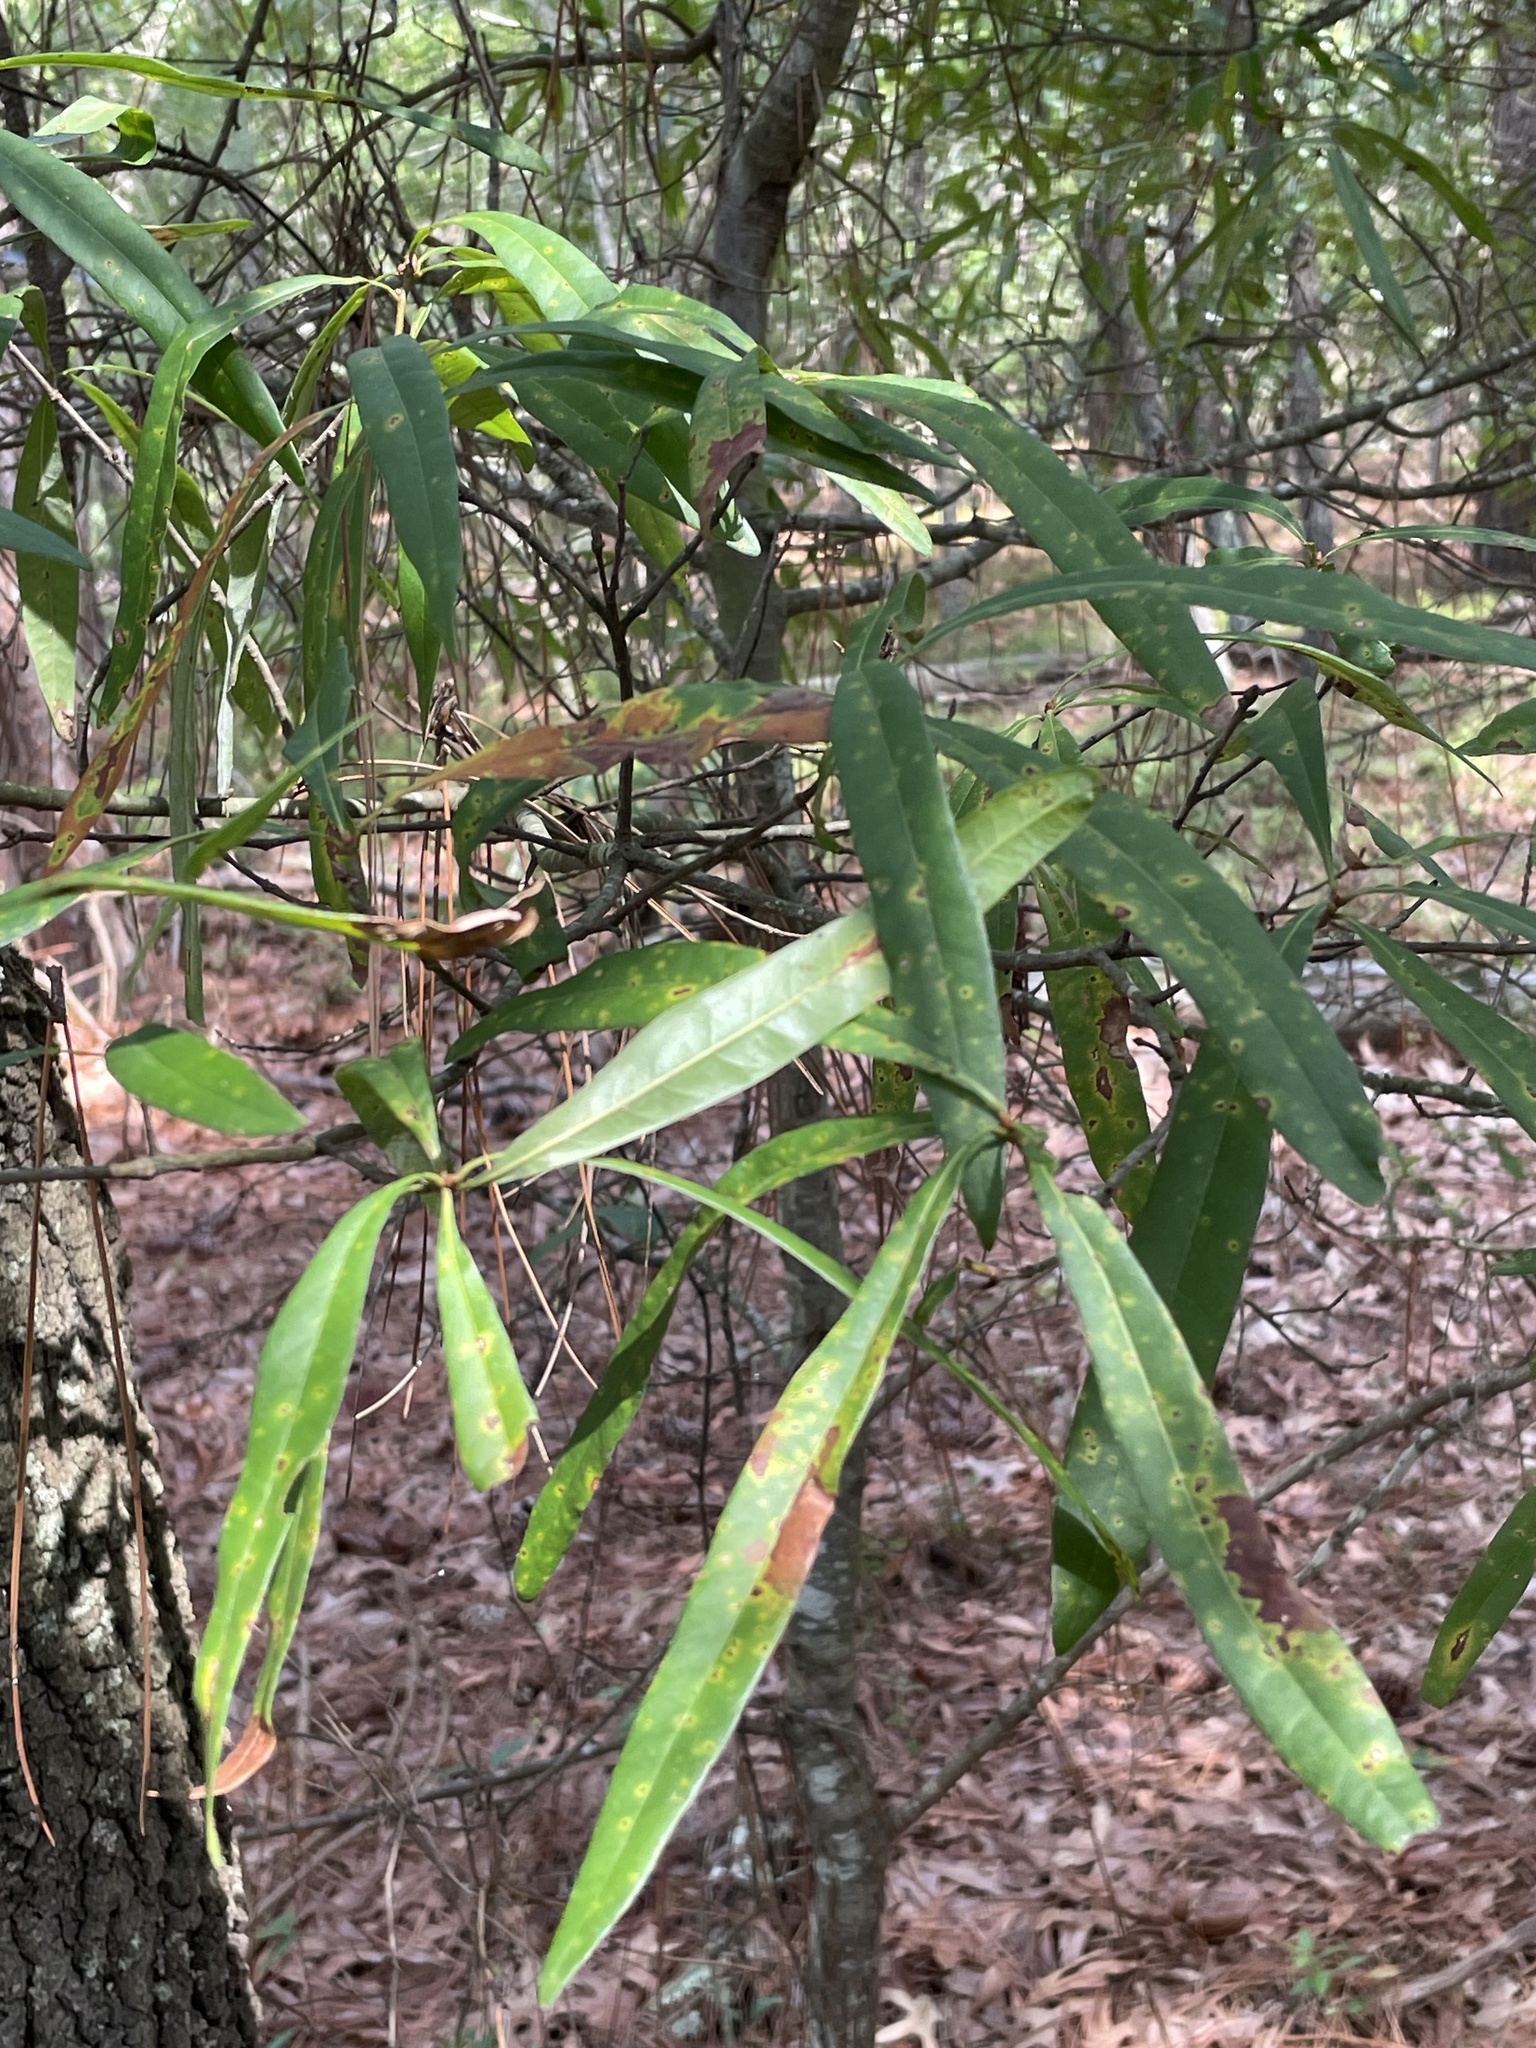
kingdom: Plantae
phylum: Tracheophyta
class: Magnoliopsida
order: Fagales
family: Fagaceae
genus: Quercus
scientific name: Quercus phellos
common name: Willow oak
